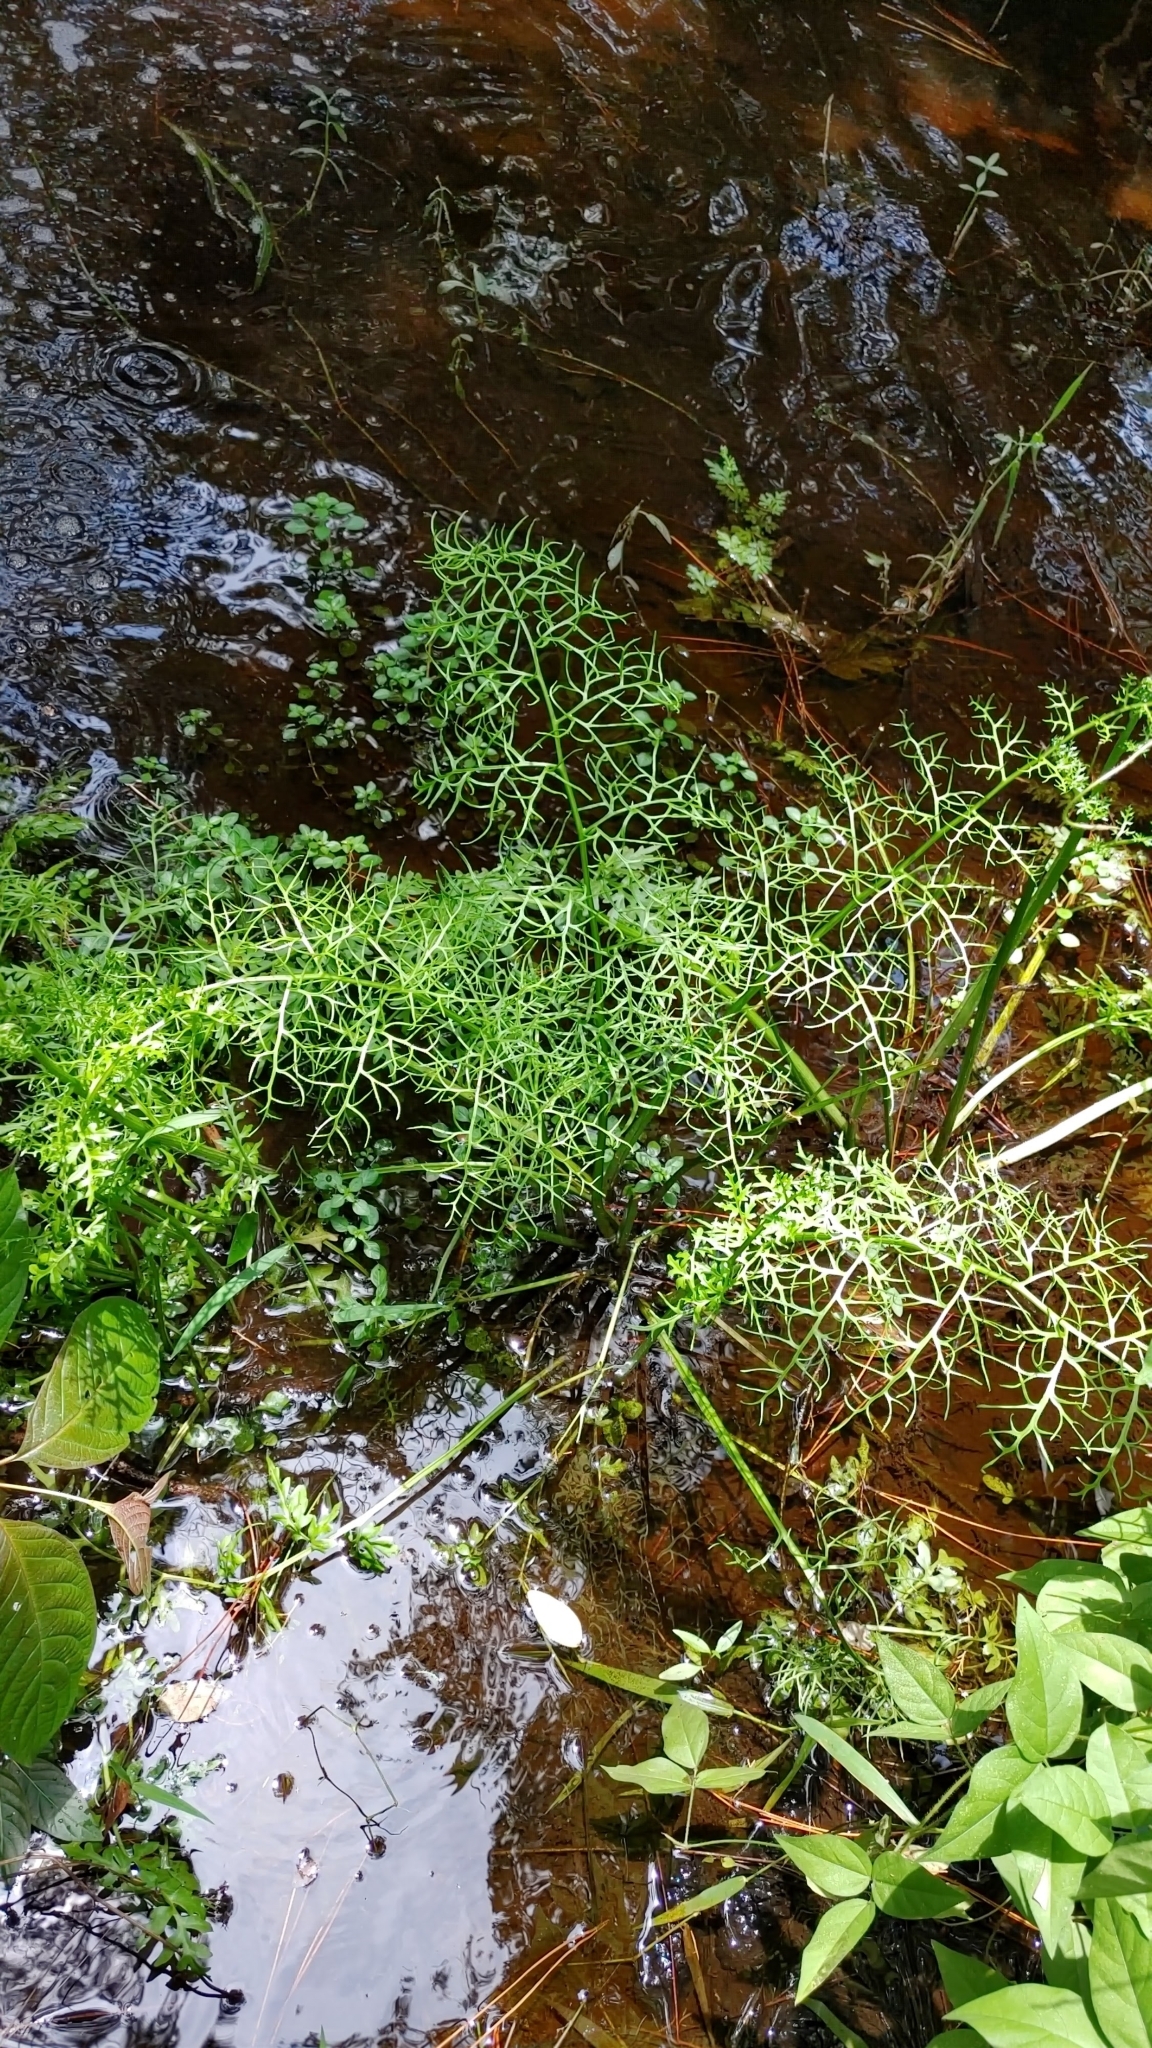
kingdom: Plantae
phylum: Tracheophyta
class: Polypodiopsida
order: Polypodiales
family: Pteridaceae
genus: Ceratopteris
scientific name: Ceratopteris thalictroides
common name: Water fern
